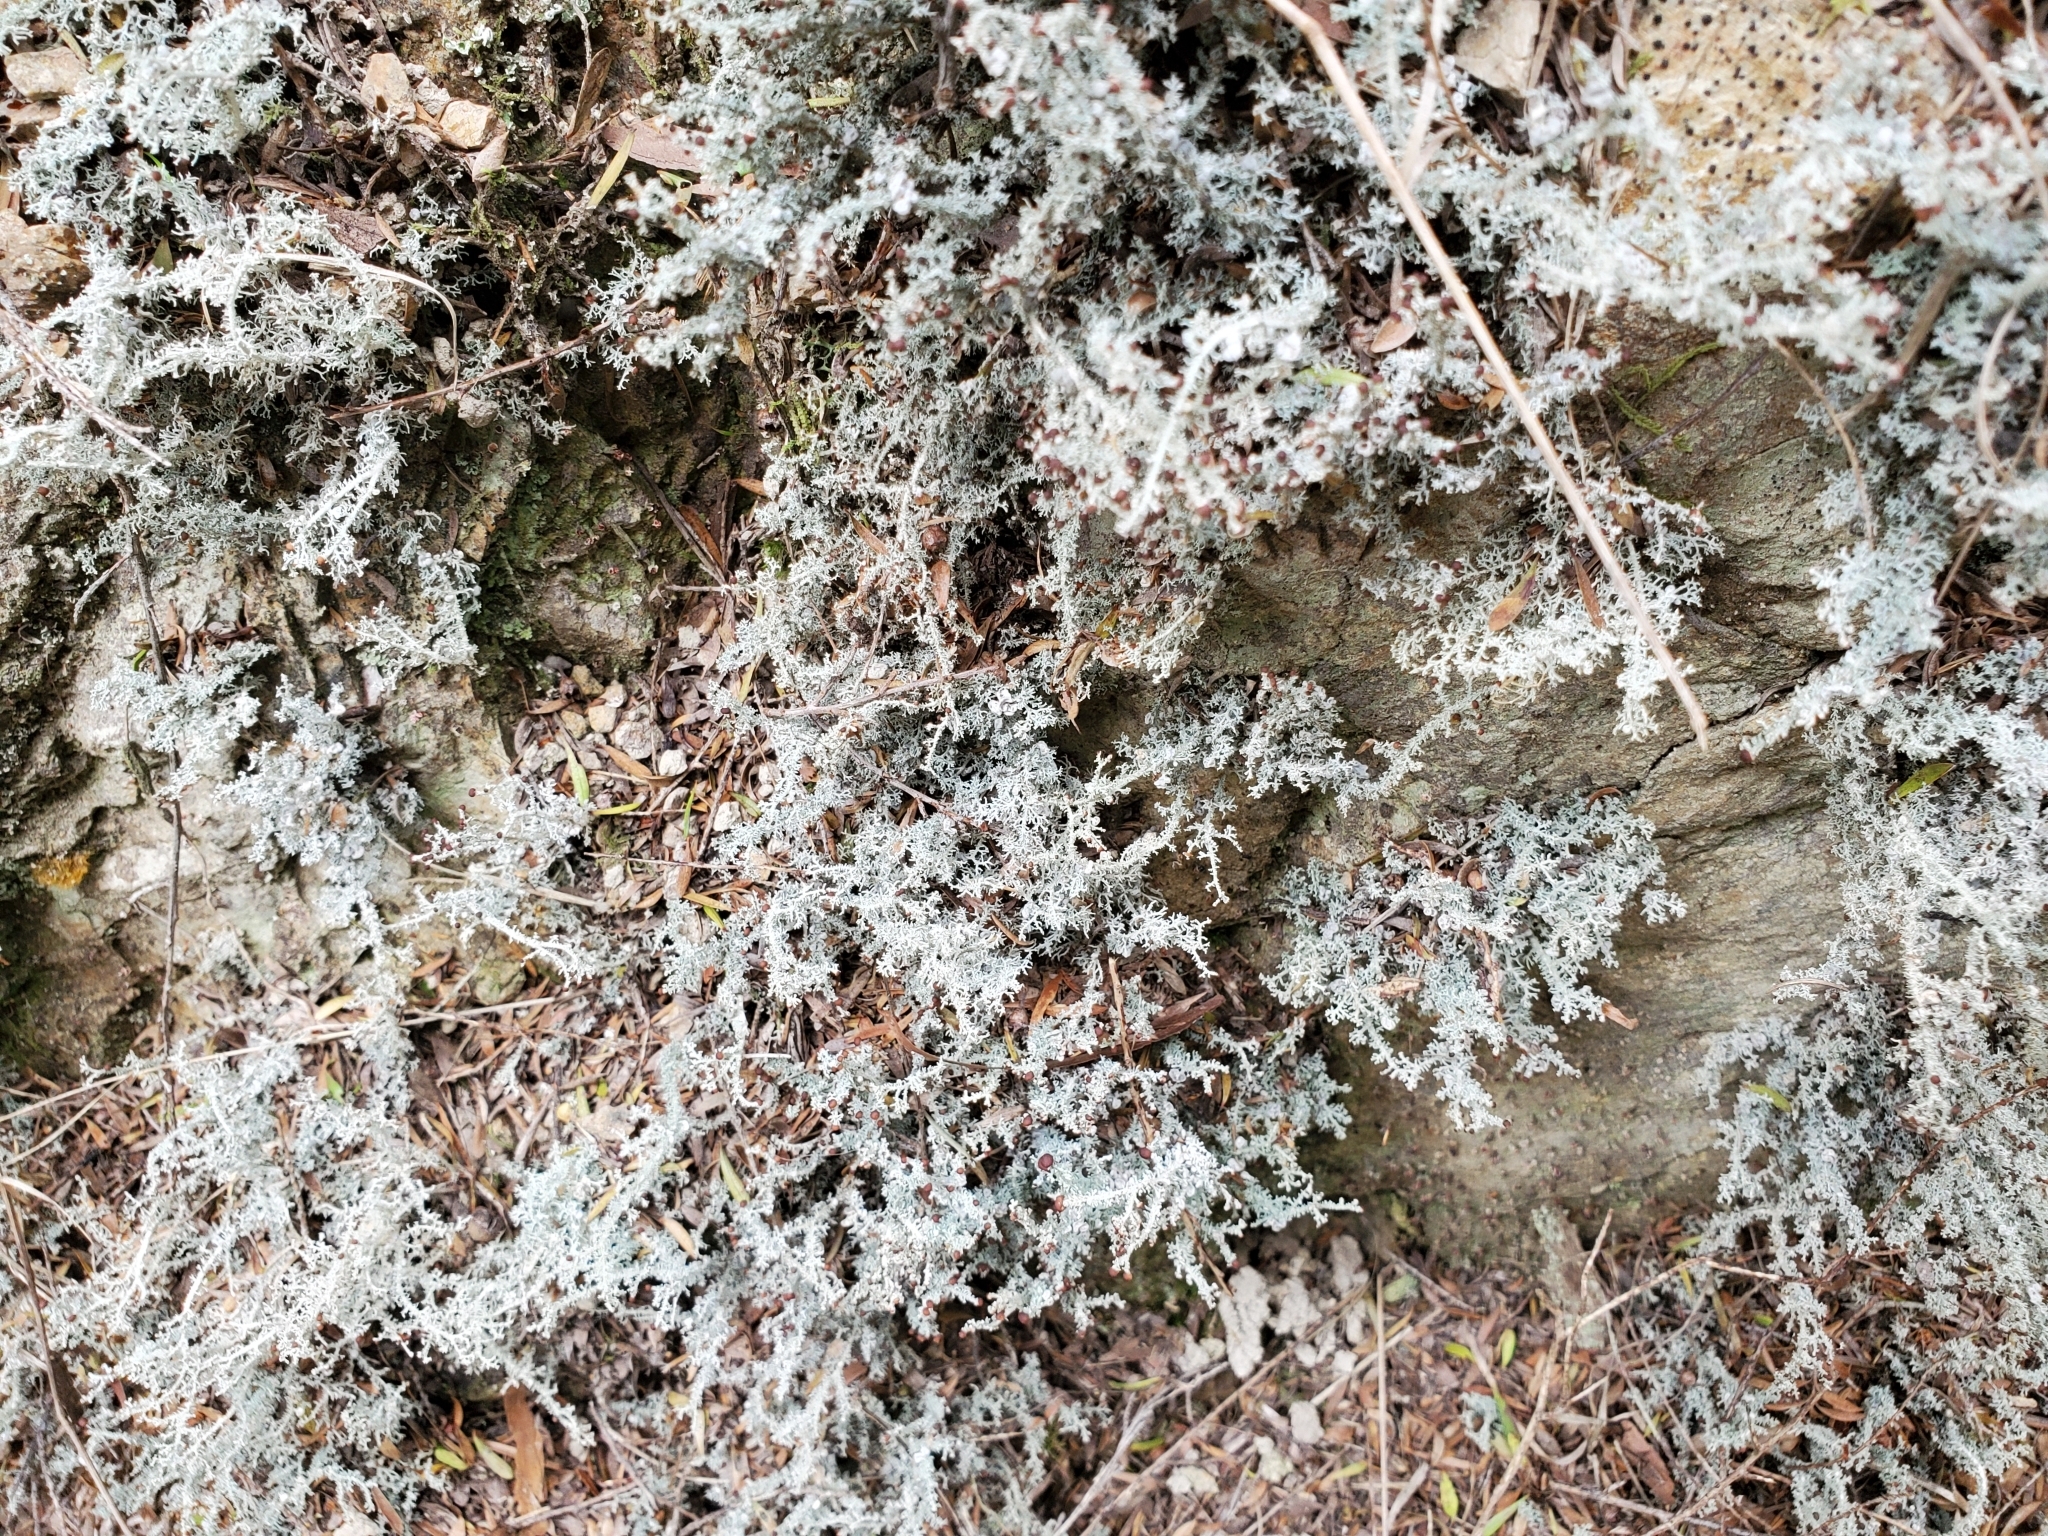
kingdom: Fungi
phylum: Ascomycota
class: Lecanoromycetes
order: Lecanorales
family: Stereocaulaceae
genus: Stereocaulon
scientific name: Stereocaulon ramulosum
